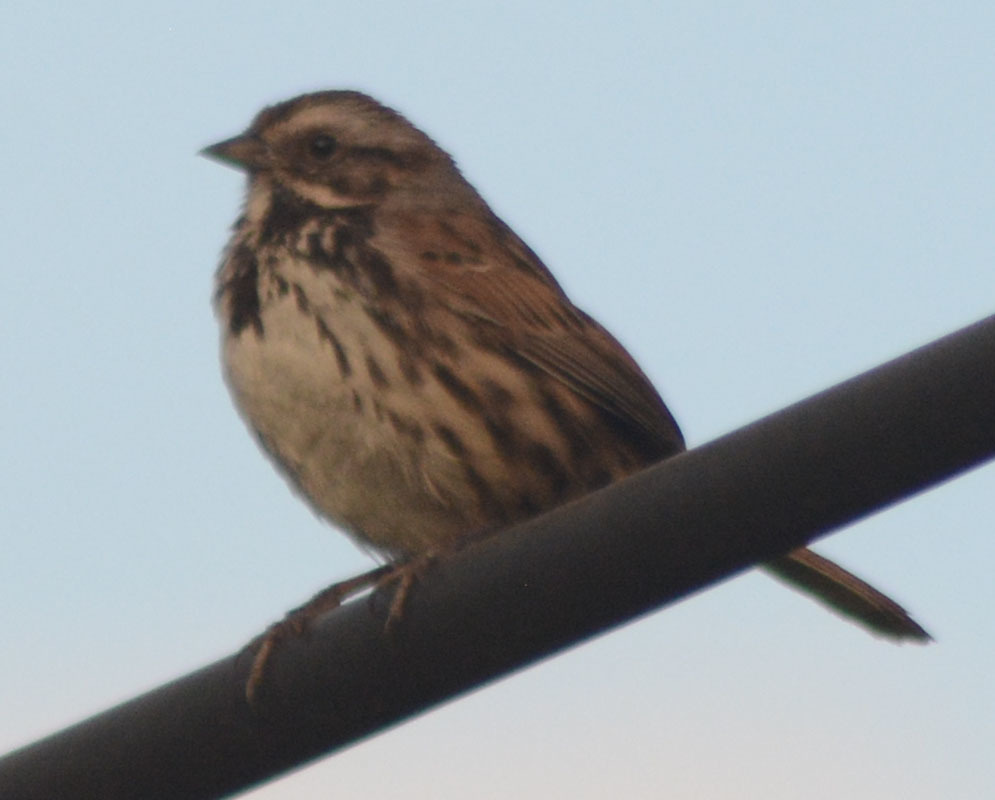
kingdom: Animalia
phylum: Chordata
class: Aves
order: Passeriformes
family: Passerellidae
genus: Melospiza
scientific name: Melospiza melodia
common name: Song sparrow
